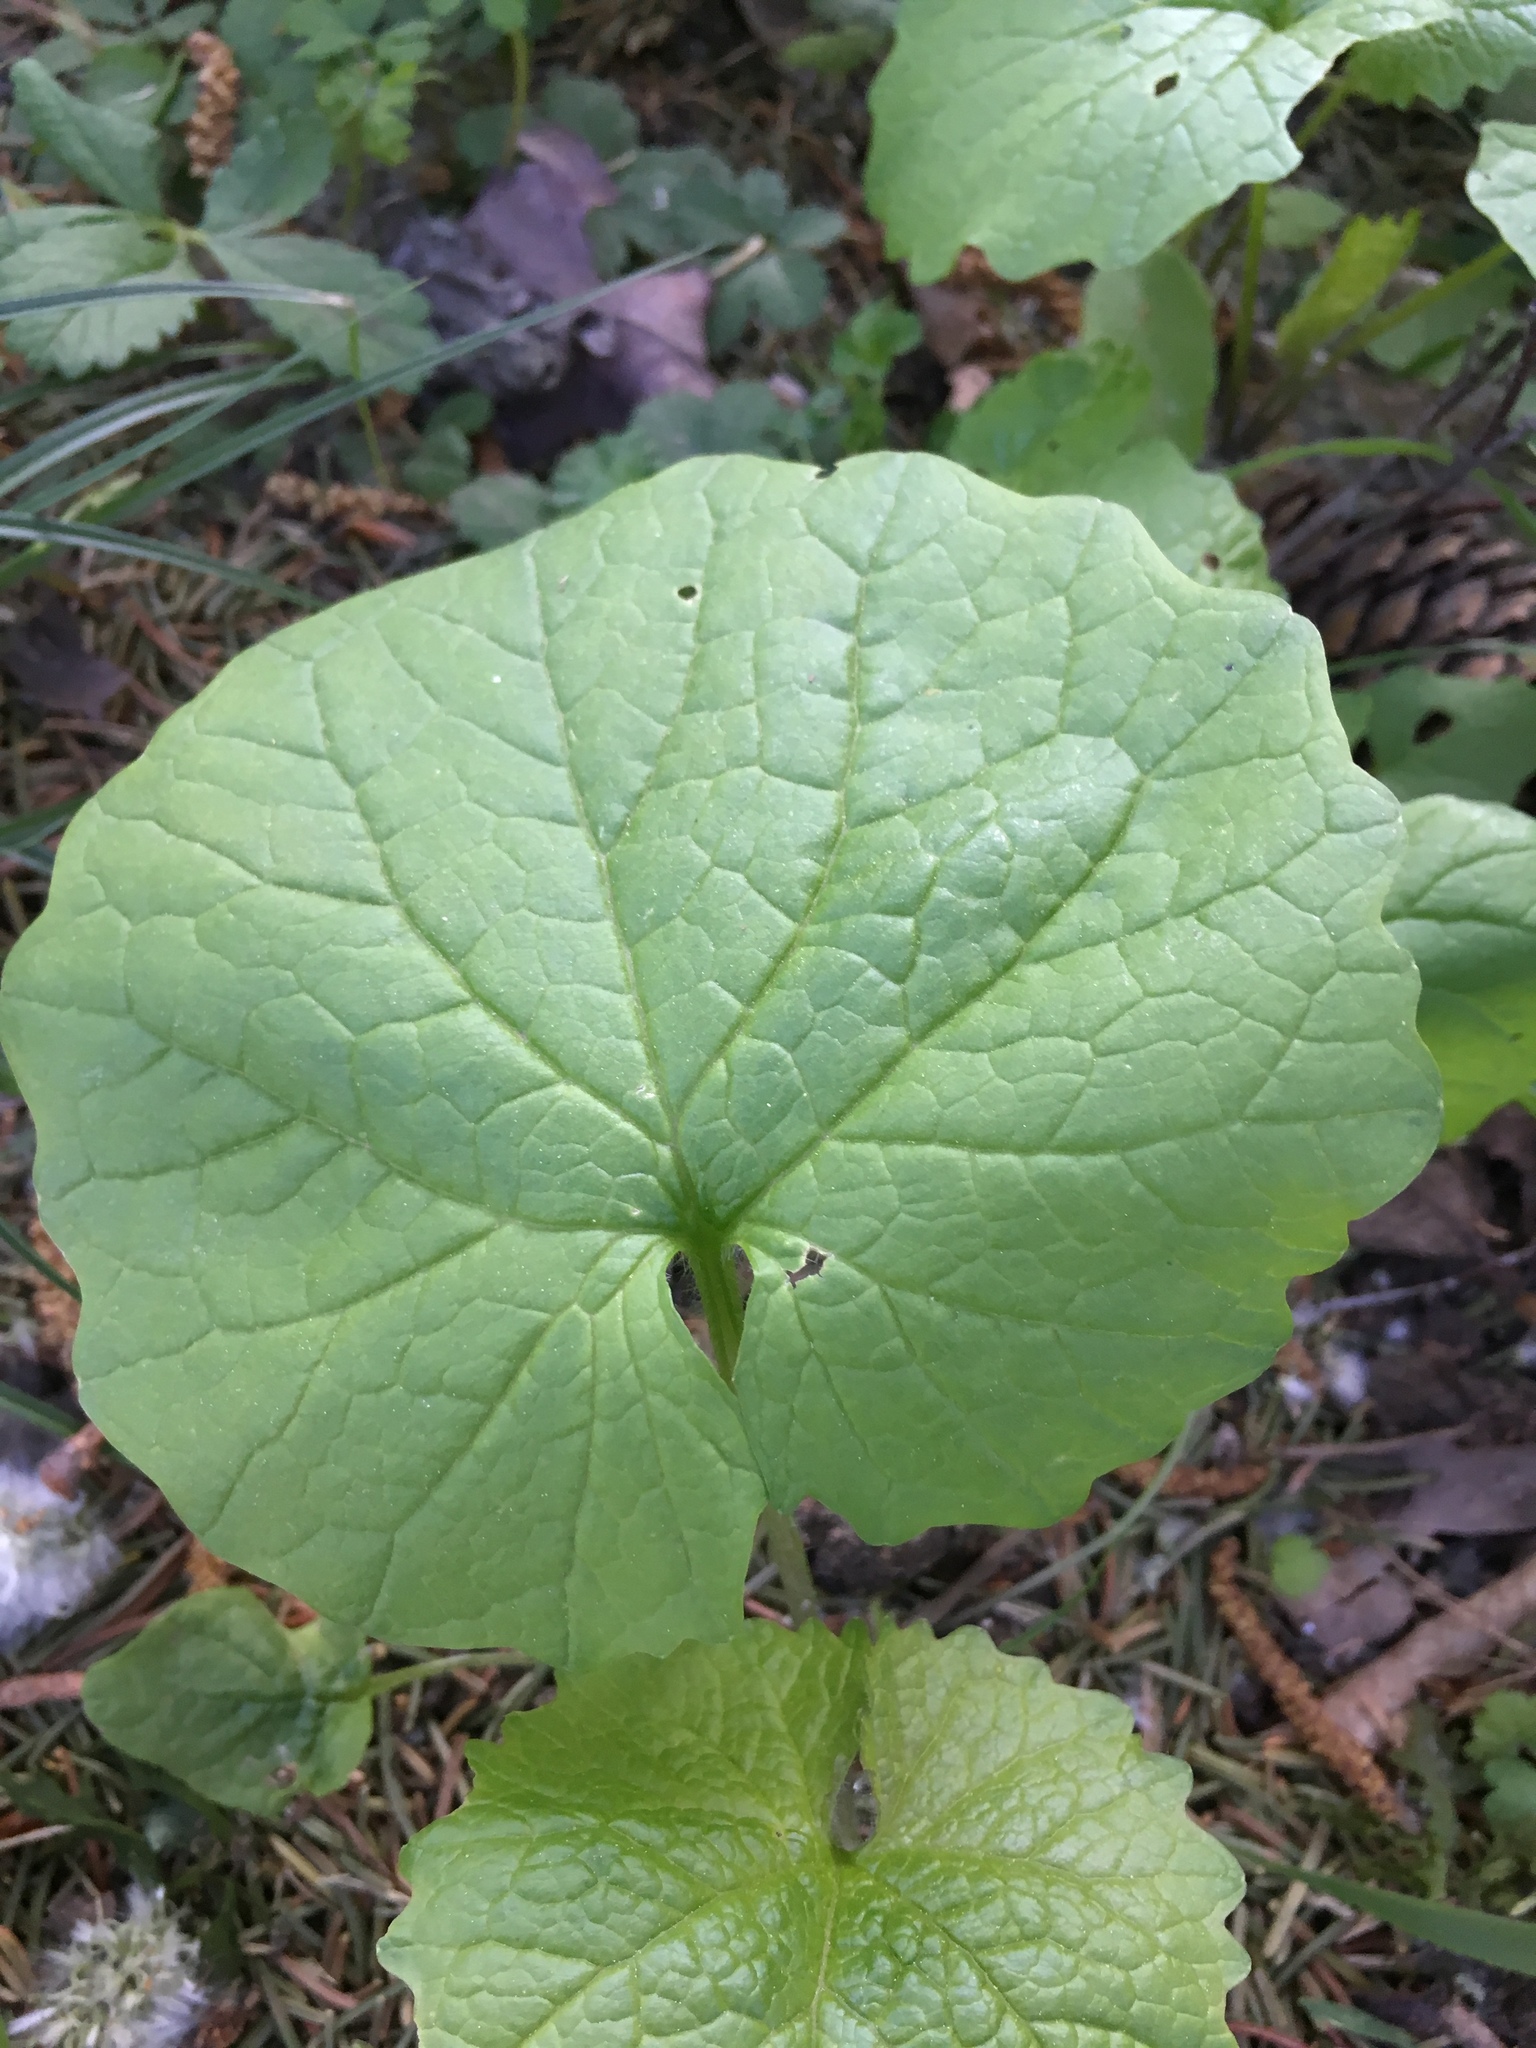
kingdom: Plantae
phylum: Tracheophyta
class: Magnoliopsida
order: Brassicales
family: Brassicaceae
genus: Alliaria
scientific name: Alliaria petiolata
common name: Garlic mustard
